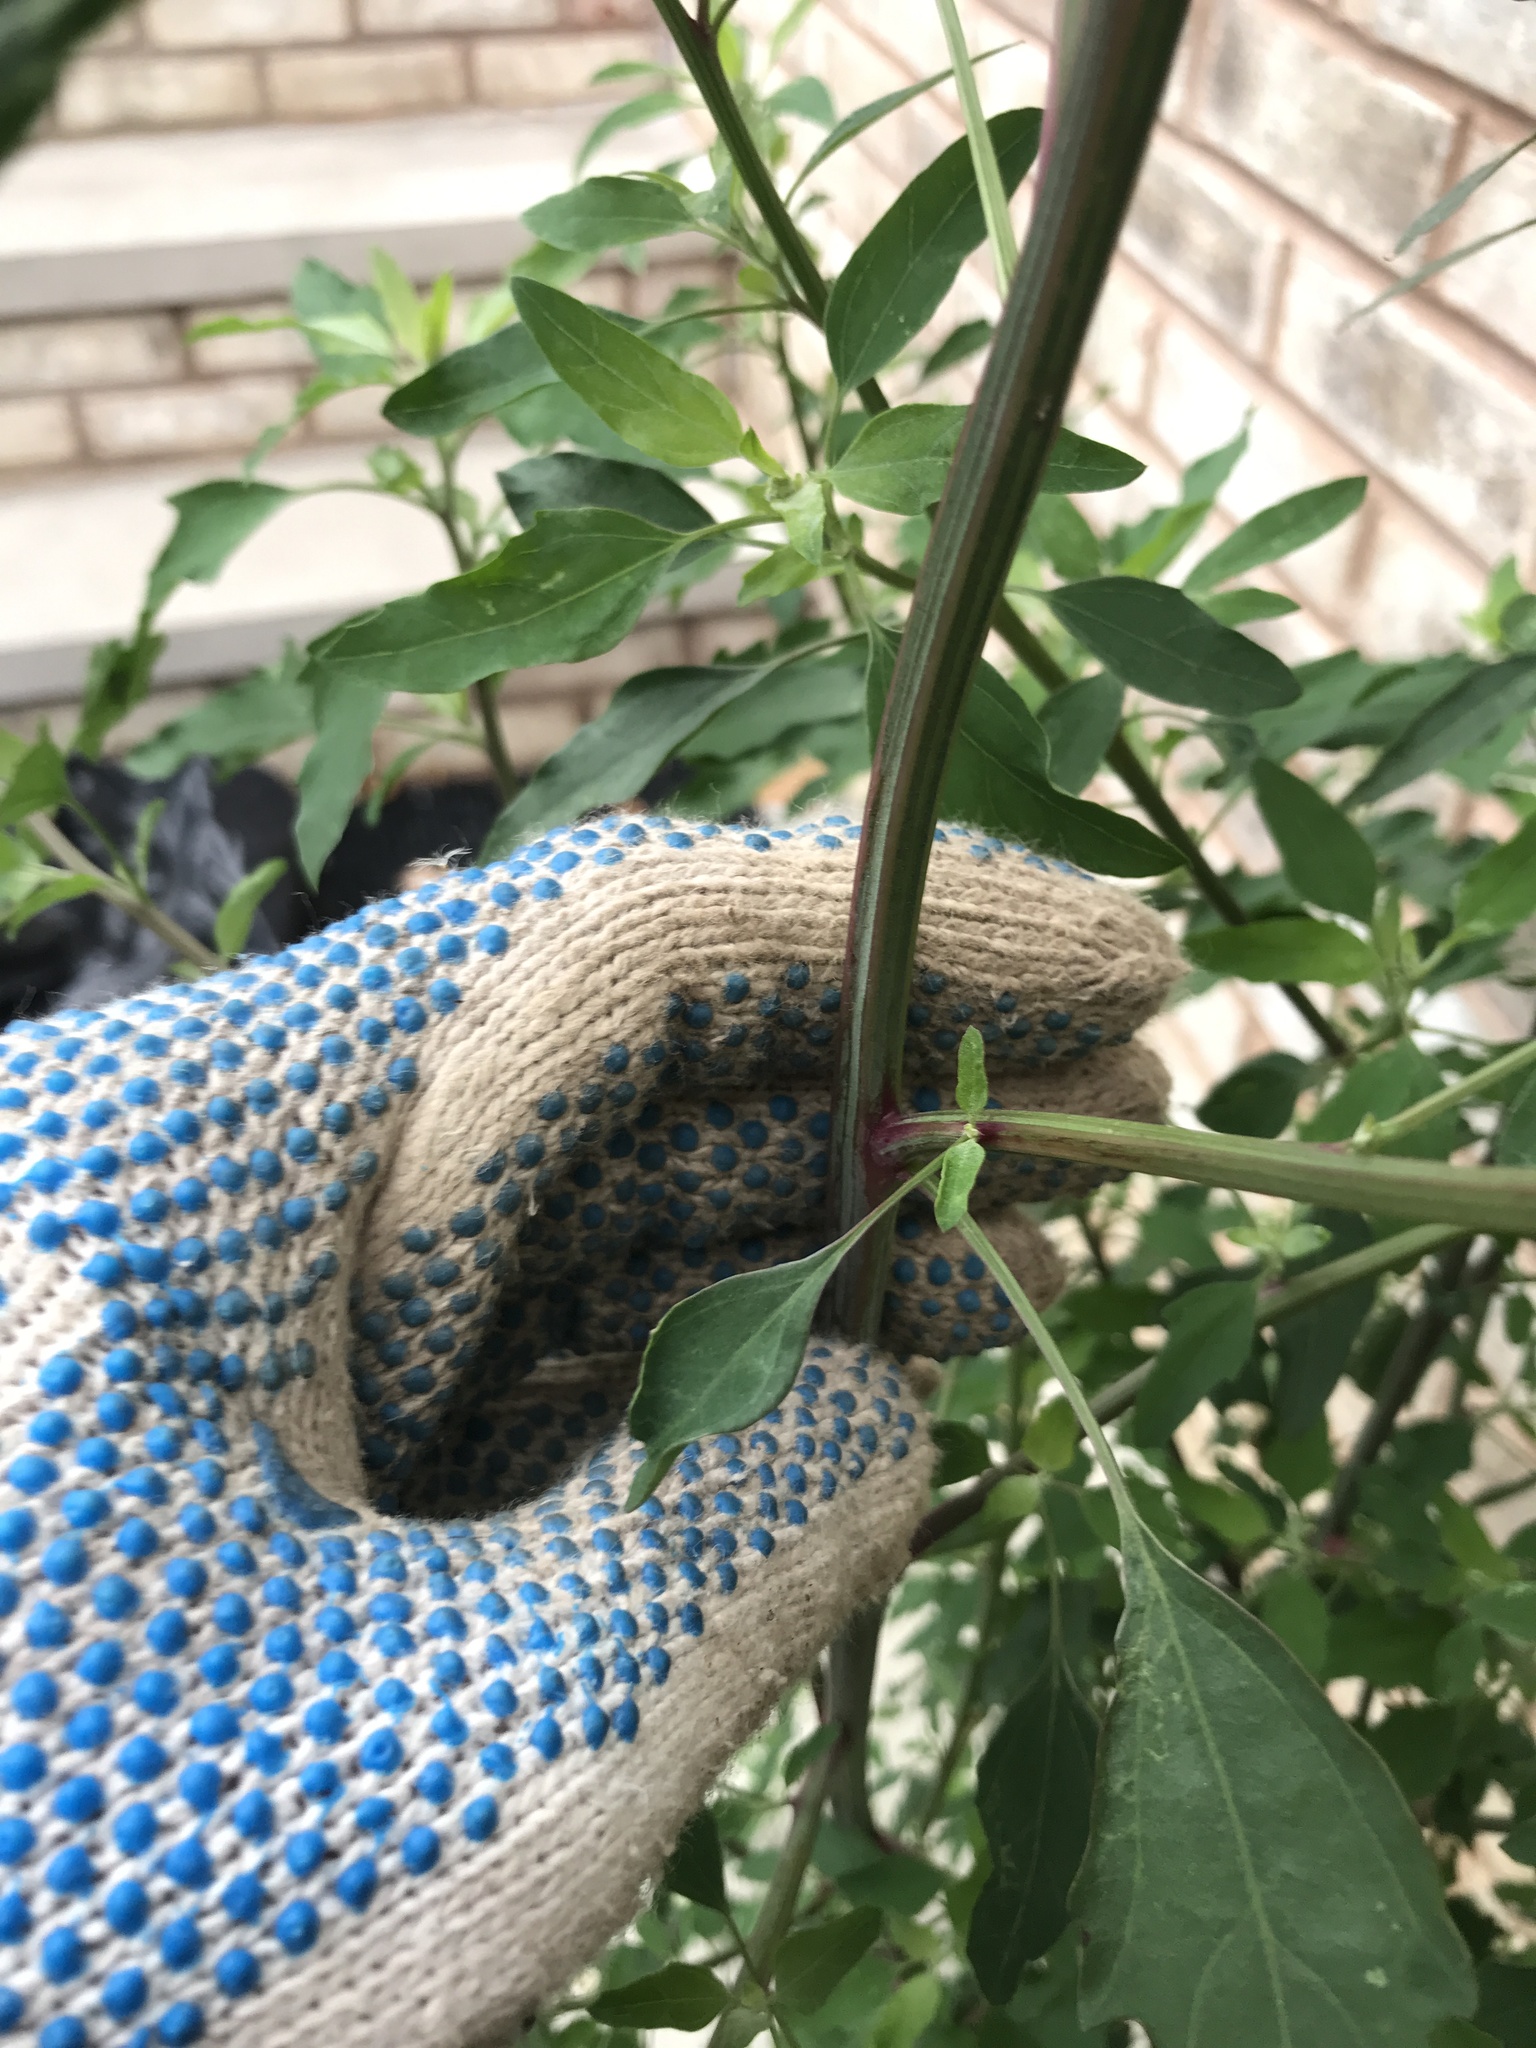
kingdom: Plantae
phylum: Tracheophyta
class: Magnoliopsida
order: Caryophyllales
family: Amaranthaceae
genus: Chenopodium
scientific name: Chenopodium album
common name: Fat-hen
